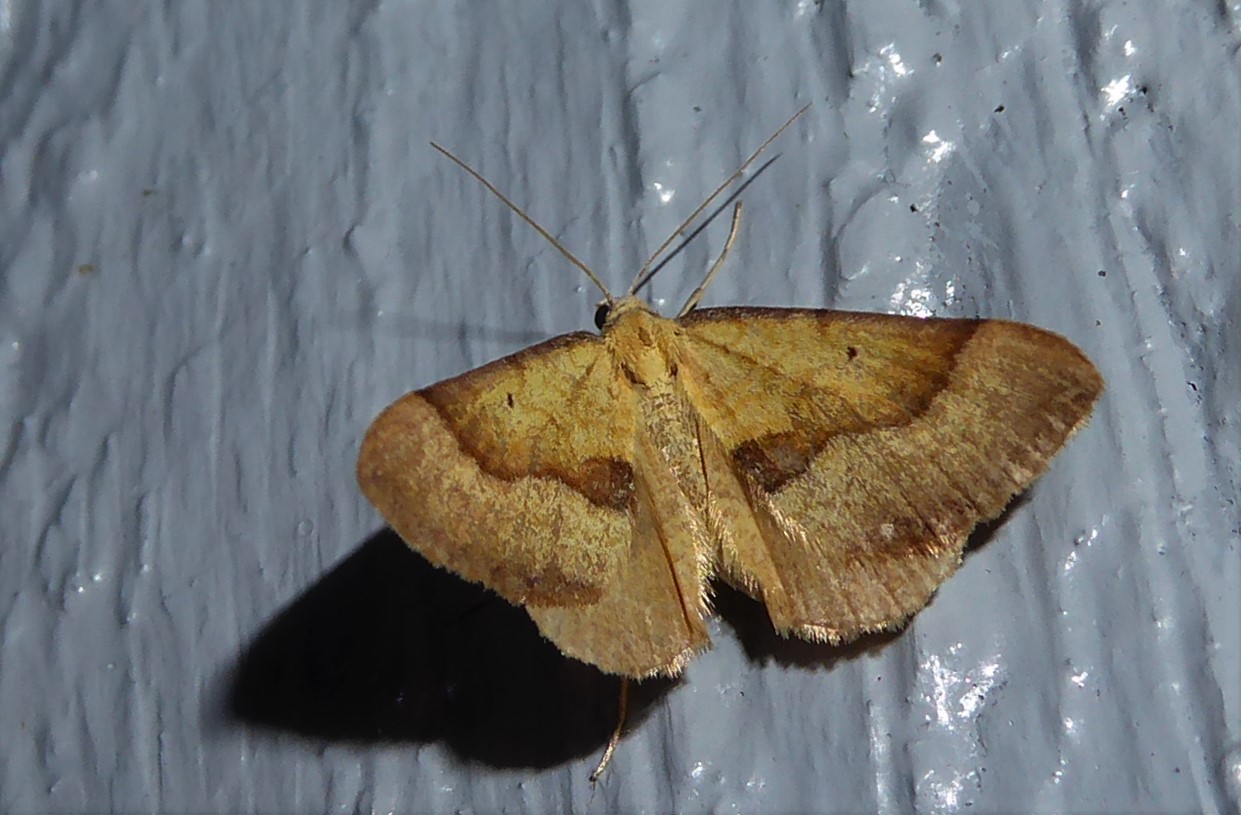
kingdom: Animalia
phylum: Arthropoda
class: Insecta
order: Lepidoptera
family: Geometridae
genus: Anachloris
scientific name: Anachloris subochraria
